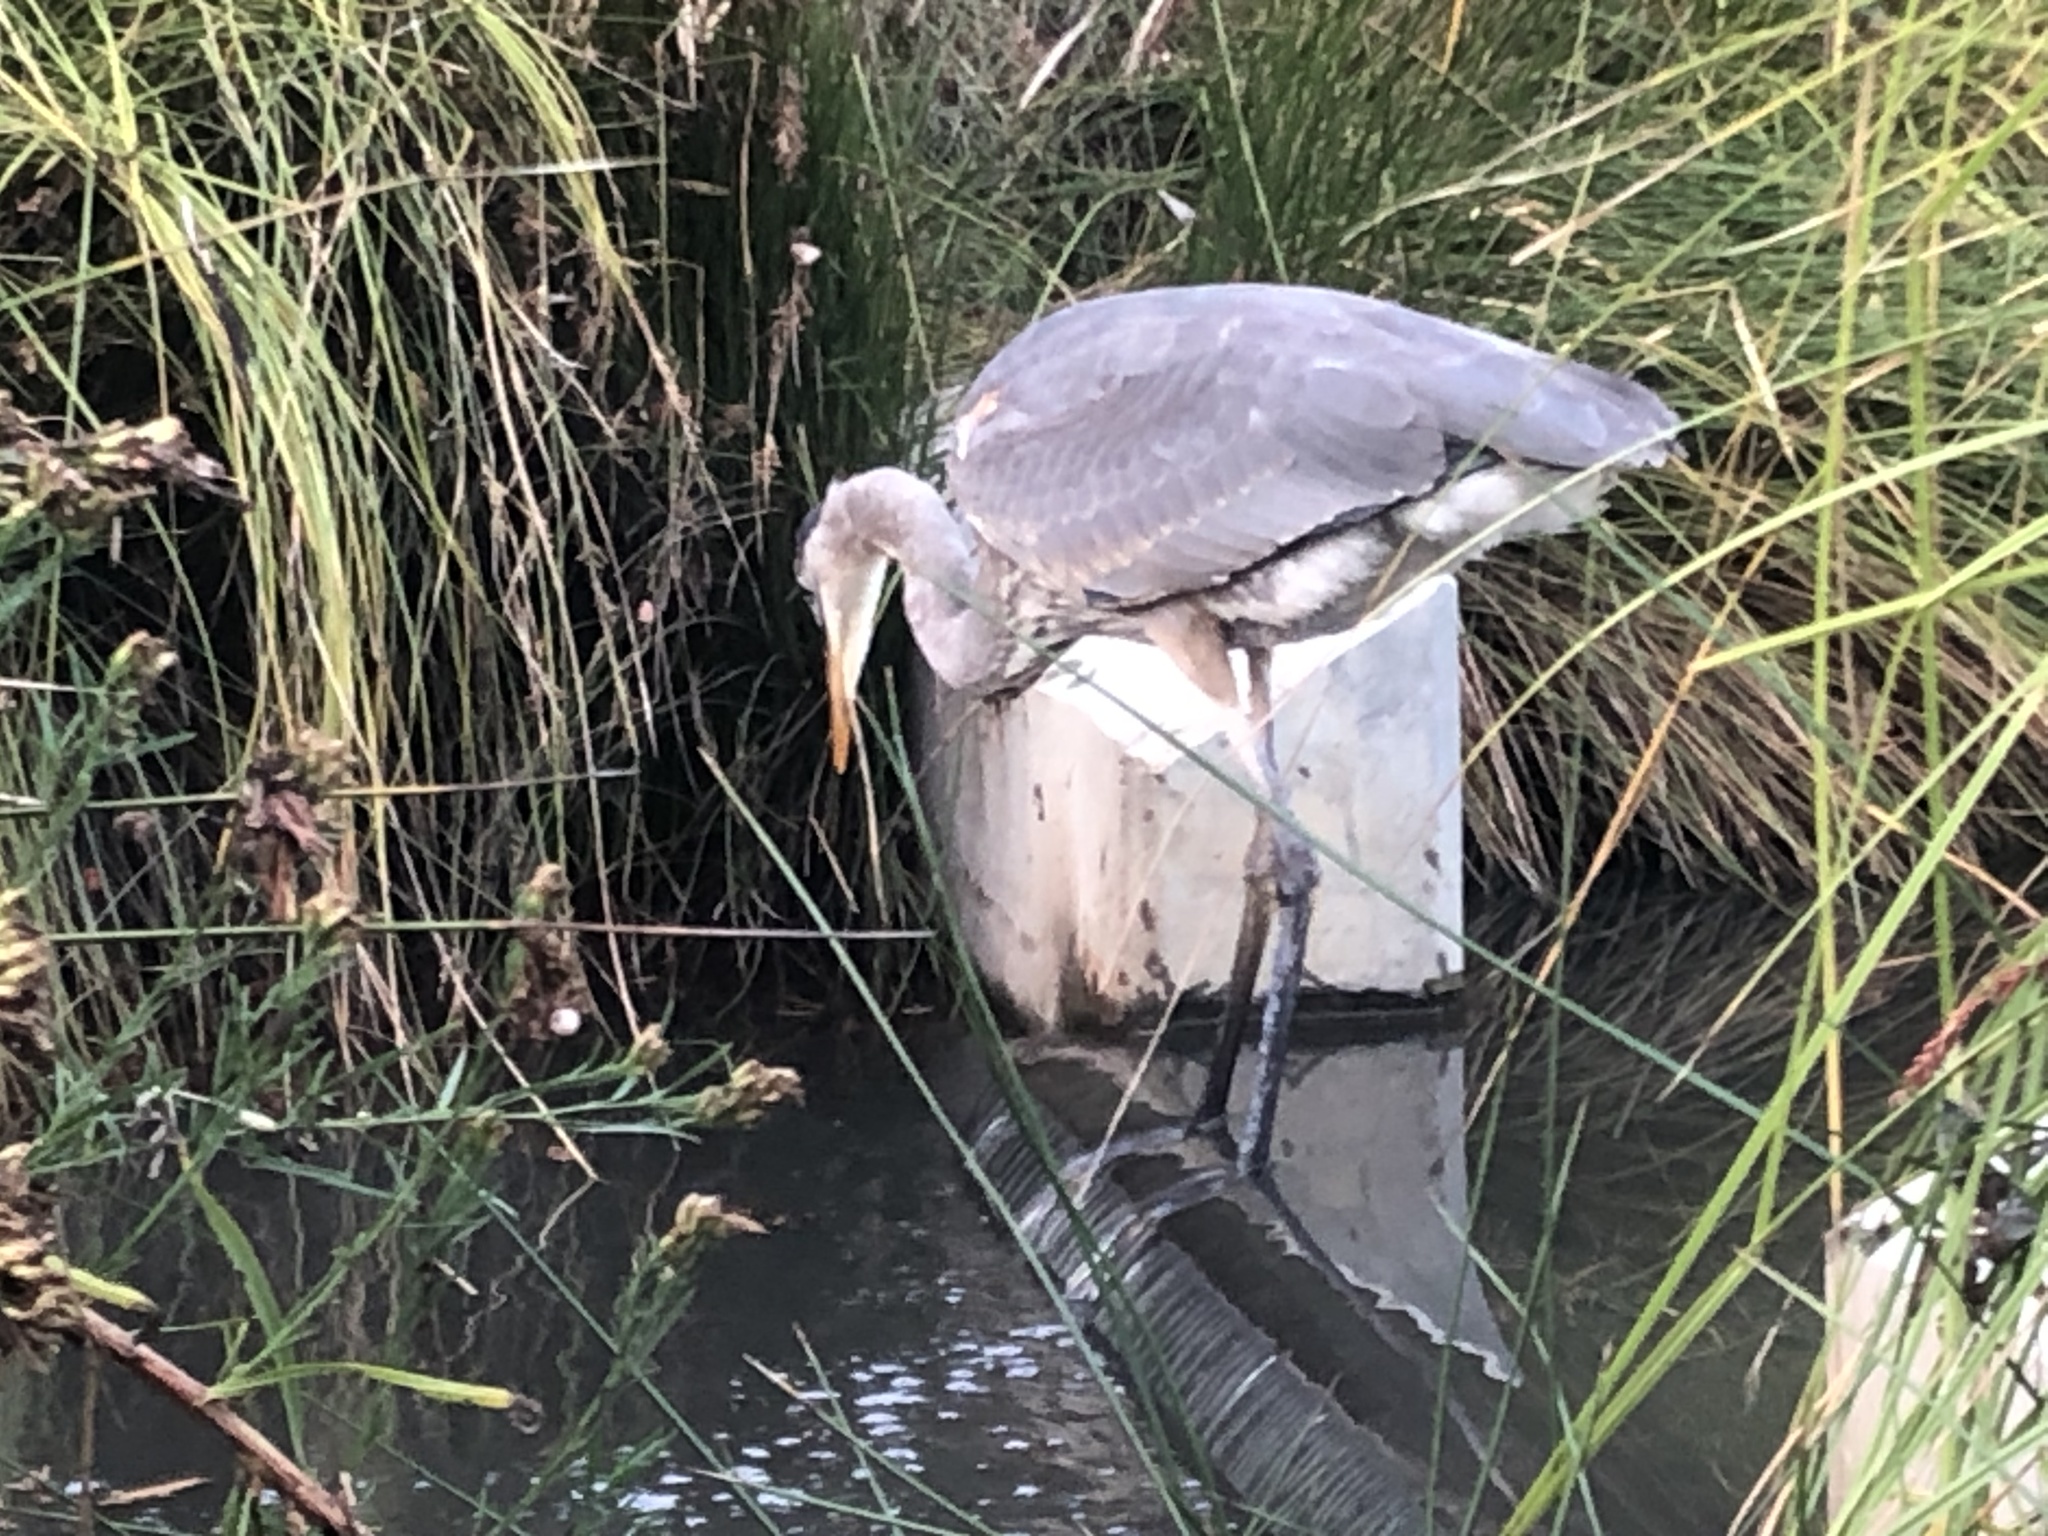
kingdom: Animalia
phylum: Chordata
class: Aves
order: Pelecaniformes
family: Ardeidae
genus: Ardea
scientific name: Ardea herodias
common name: Great blue heron
